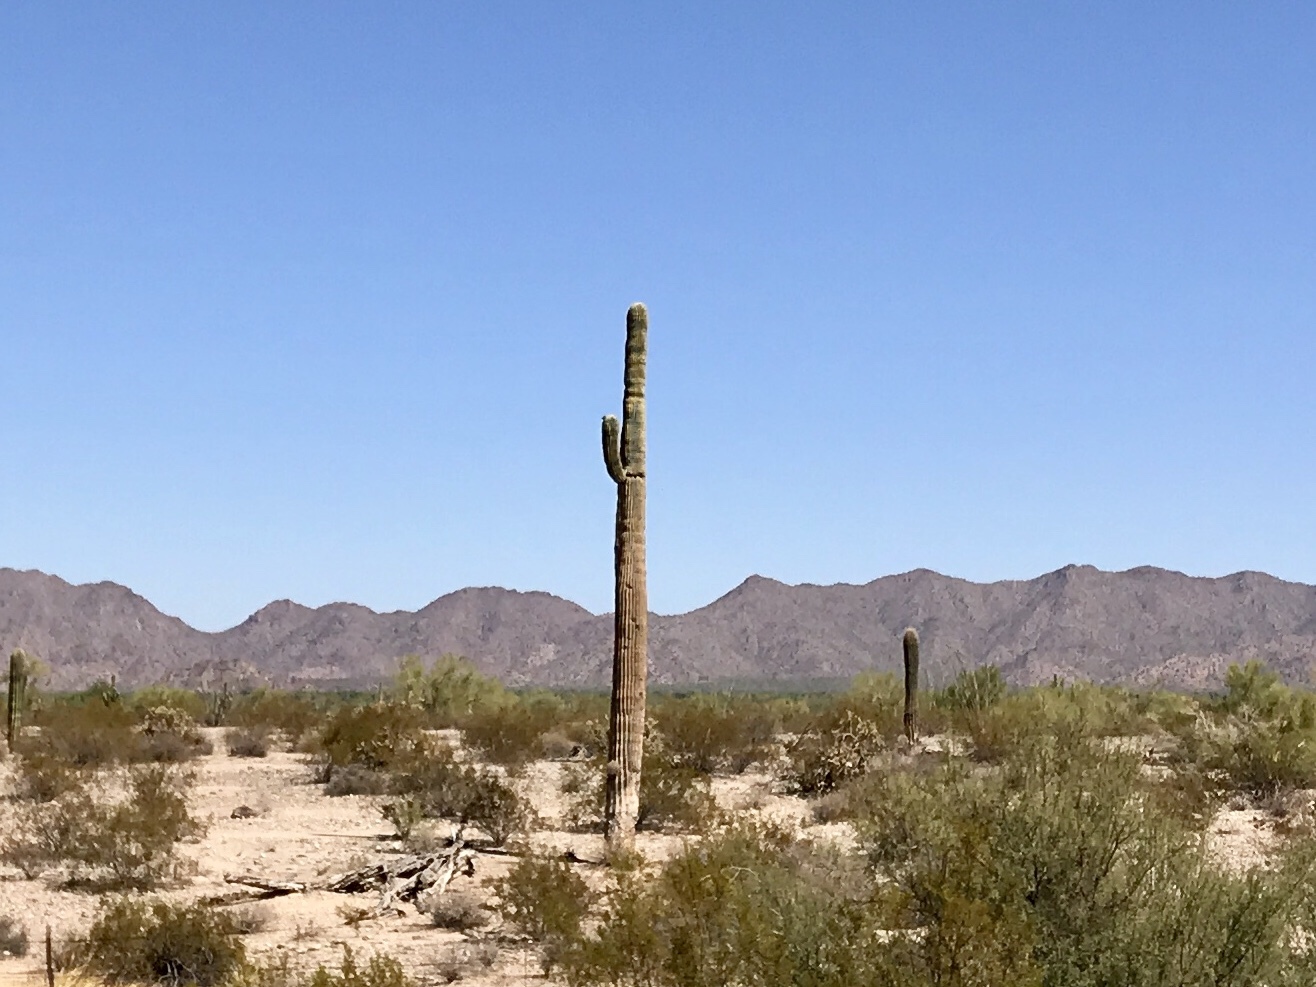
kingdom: Plantae
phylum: Tracheophyta
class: Magnoliopsida
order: Caryophyllales
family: Cactaceae
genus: Carnegiea
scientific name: Carnegiea gigantea
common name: Saguaro
